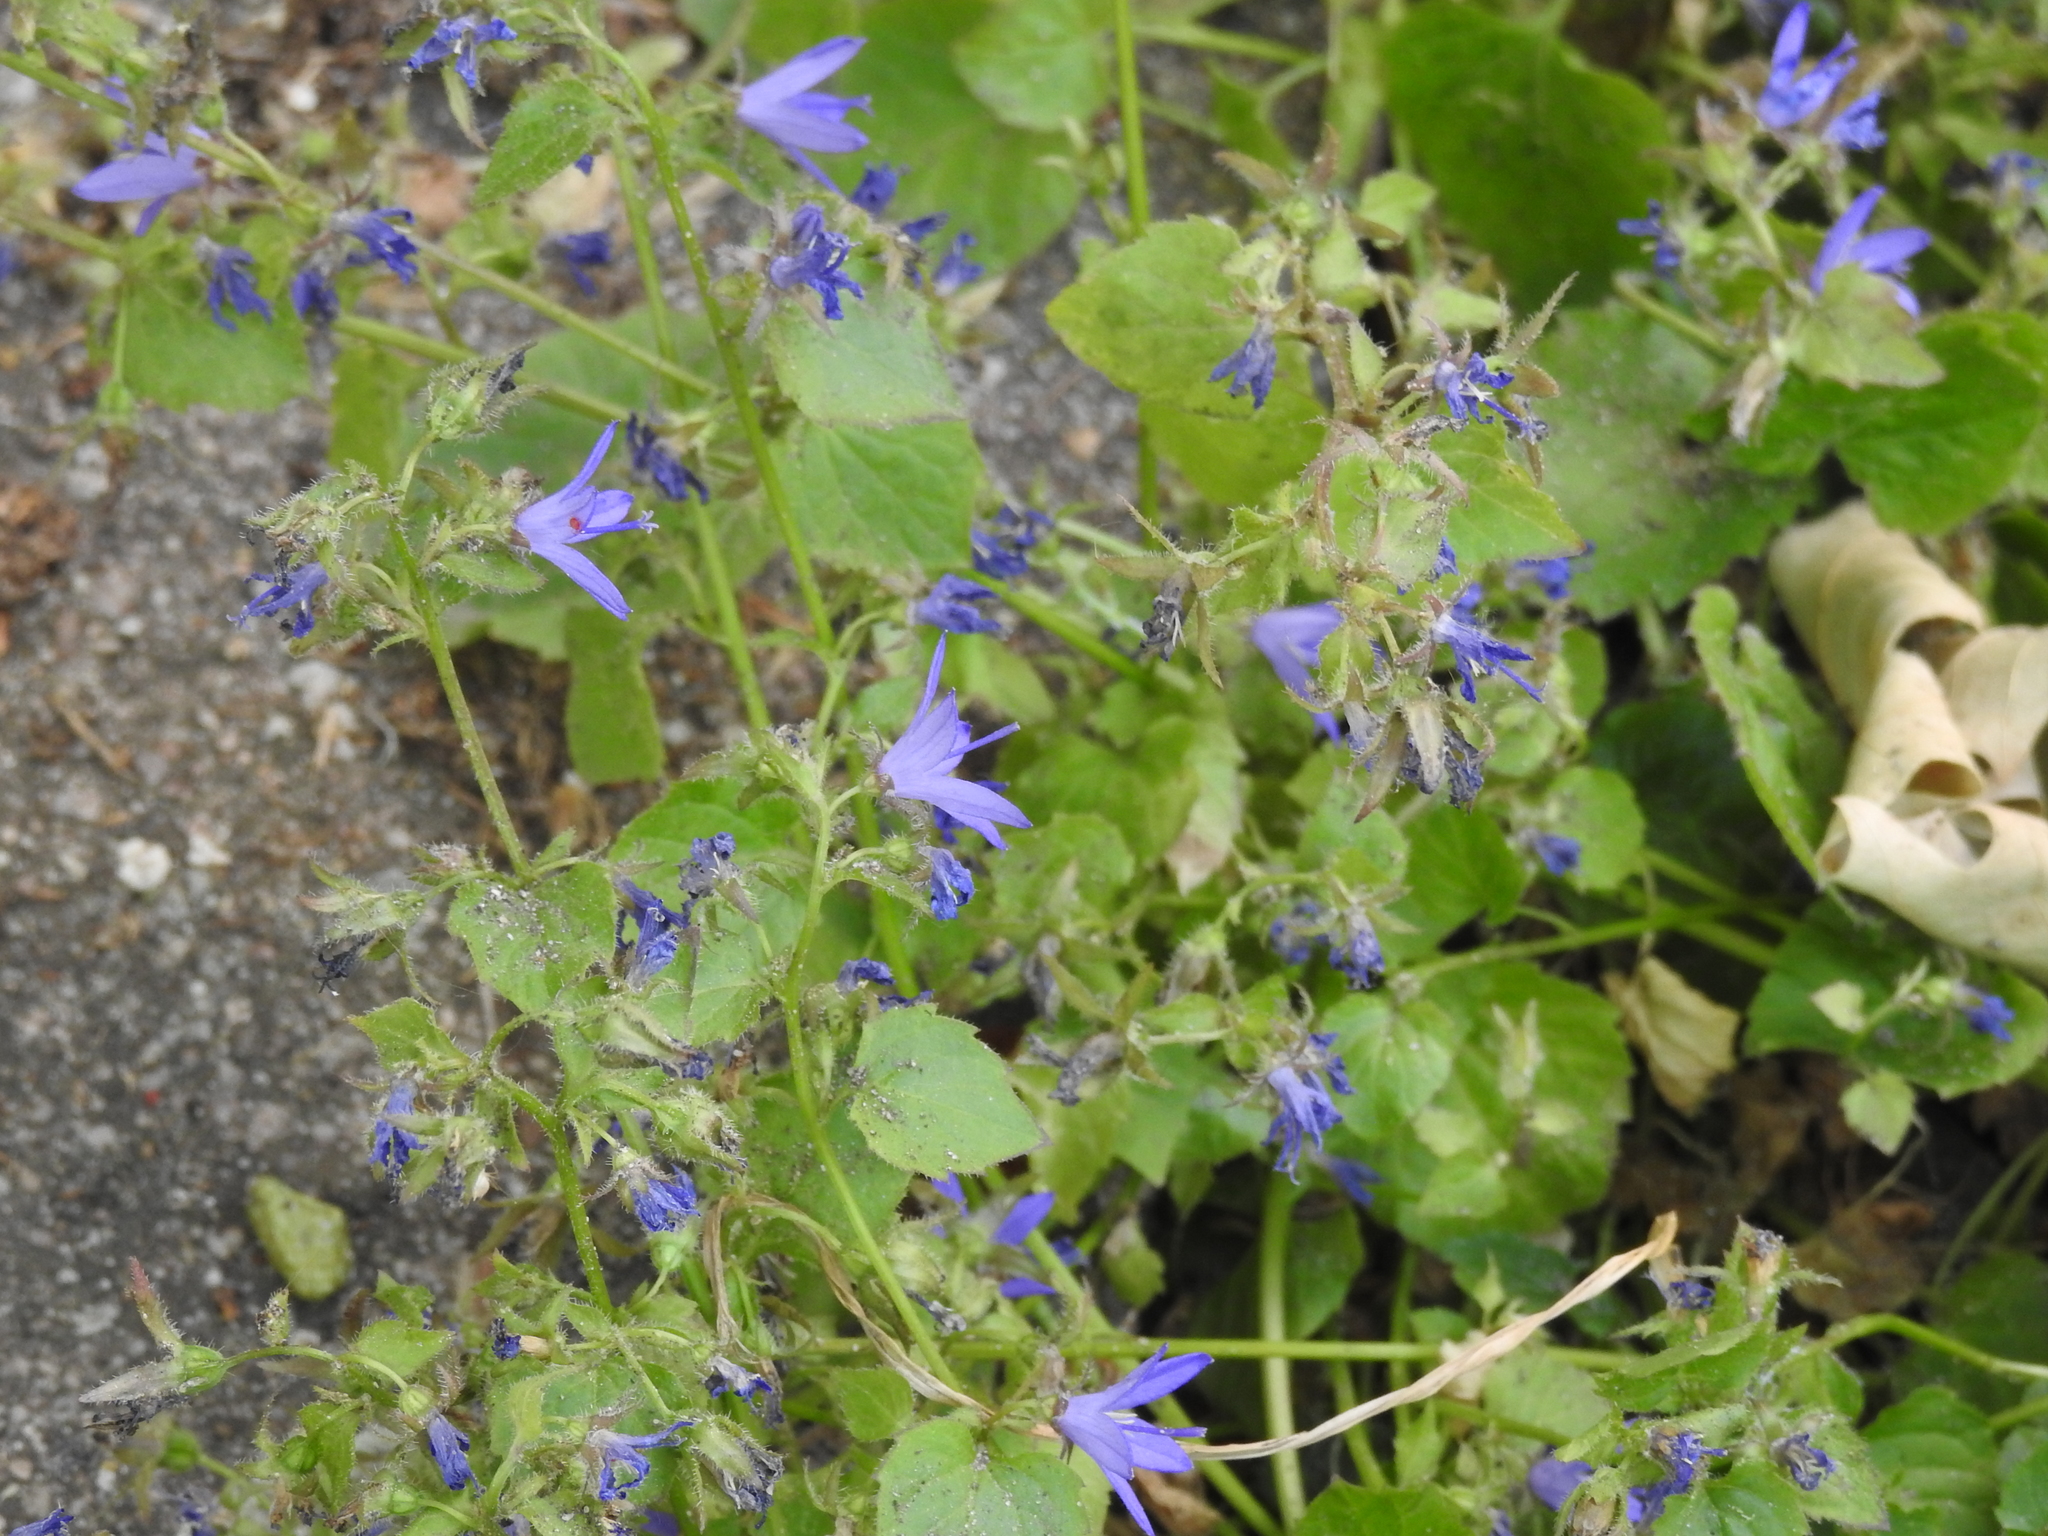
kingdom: Plantae
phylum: Tracheophyta
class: Magnoliopsida
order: Asterales
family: Campanulaceae
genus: Campanula
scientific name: Campanula poscharskyana
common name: Trailing bellflower
